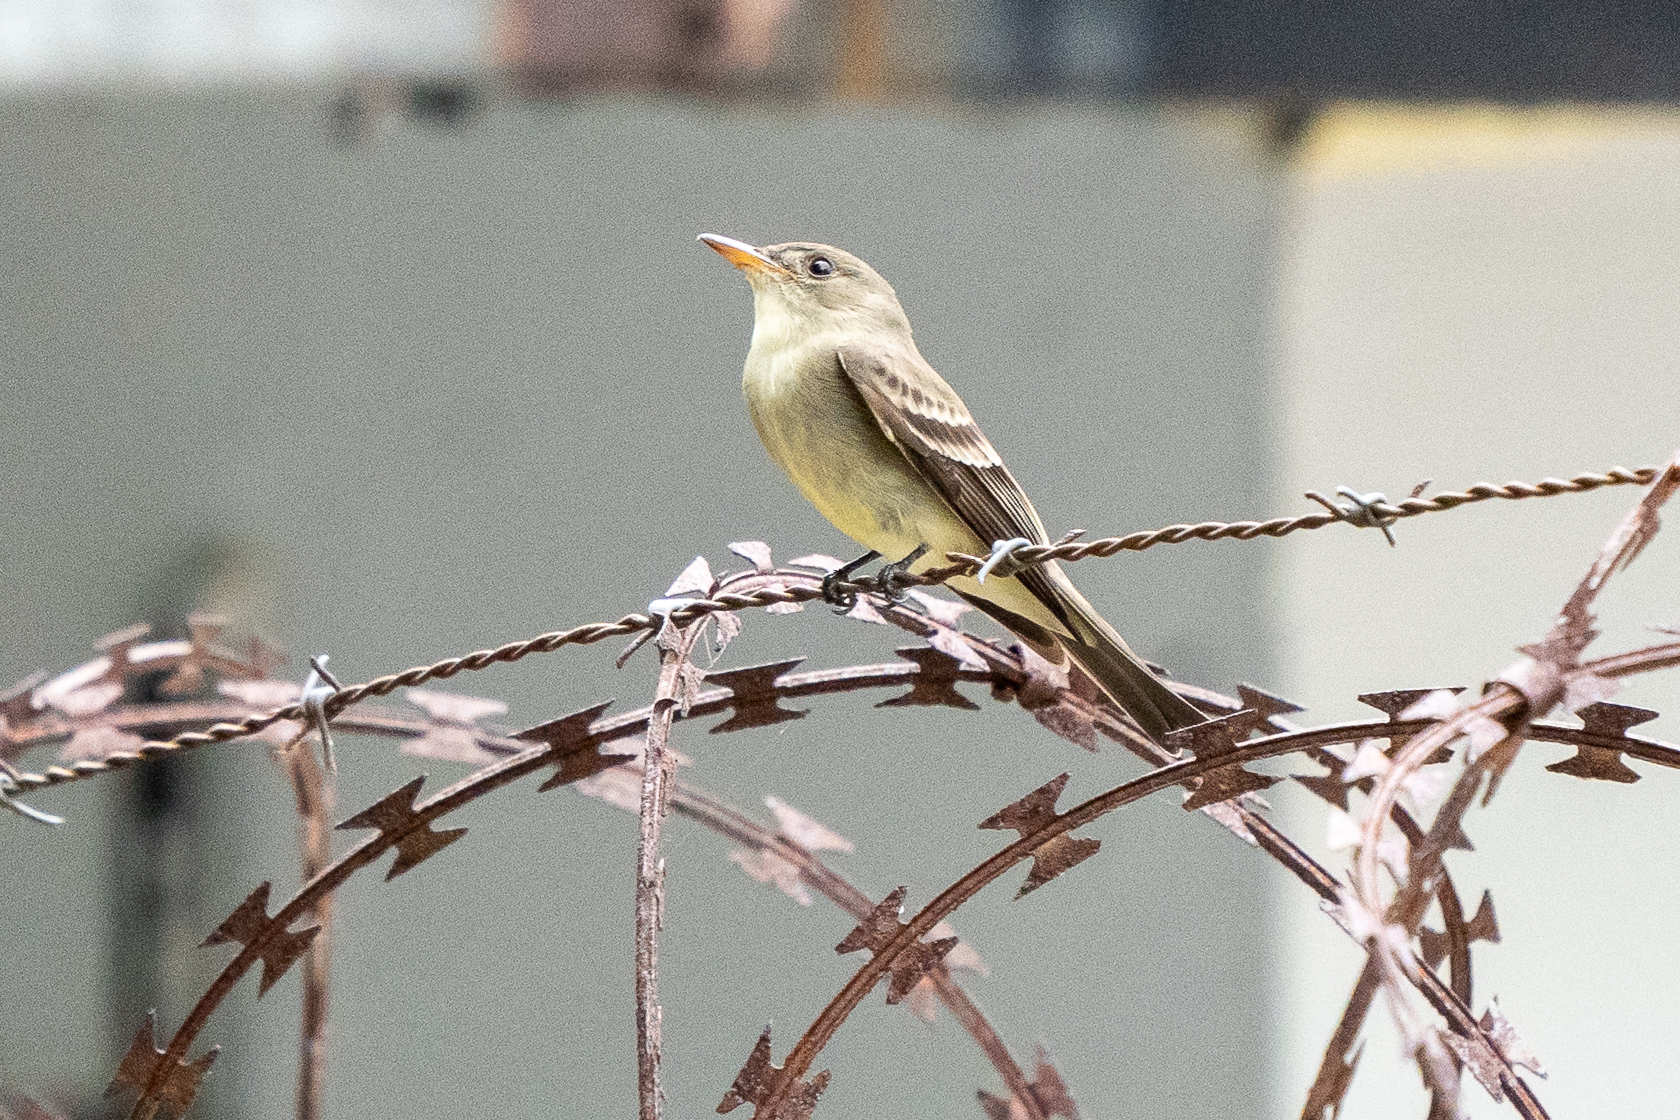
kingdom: Animalia
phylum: Chordata
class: Aves
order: Passeriformes
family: Tyrannidae
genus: Contopus
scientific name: Contopus cinereus
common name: Tropical pewee
